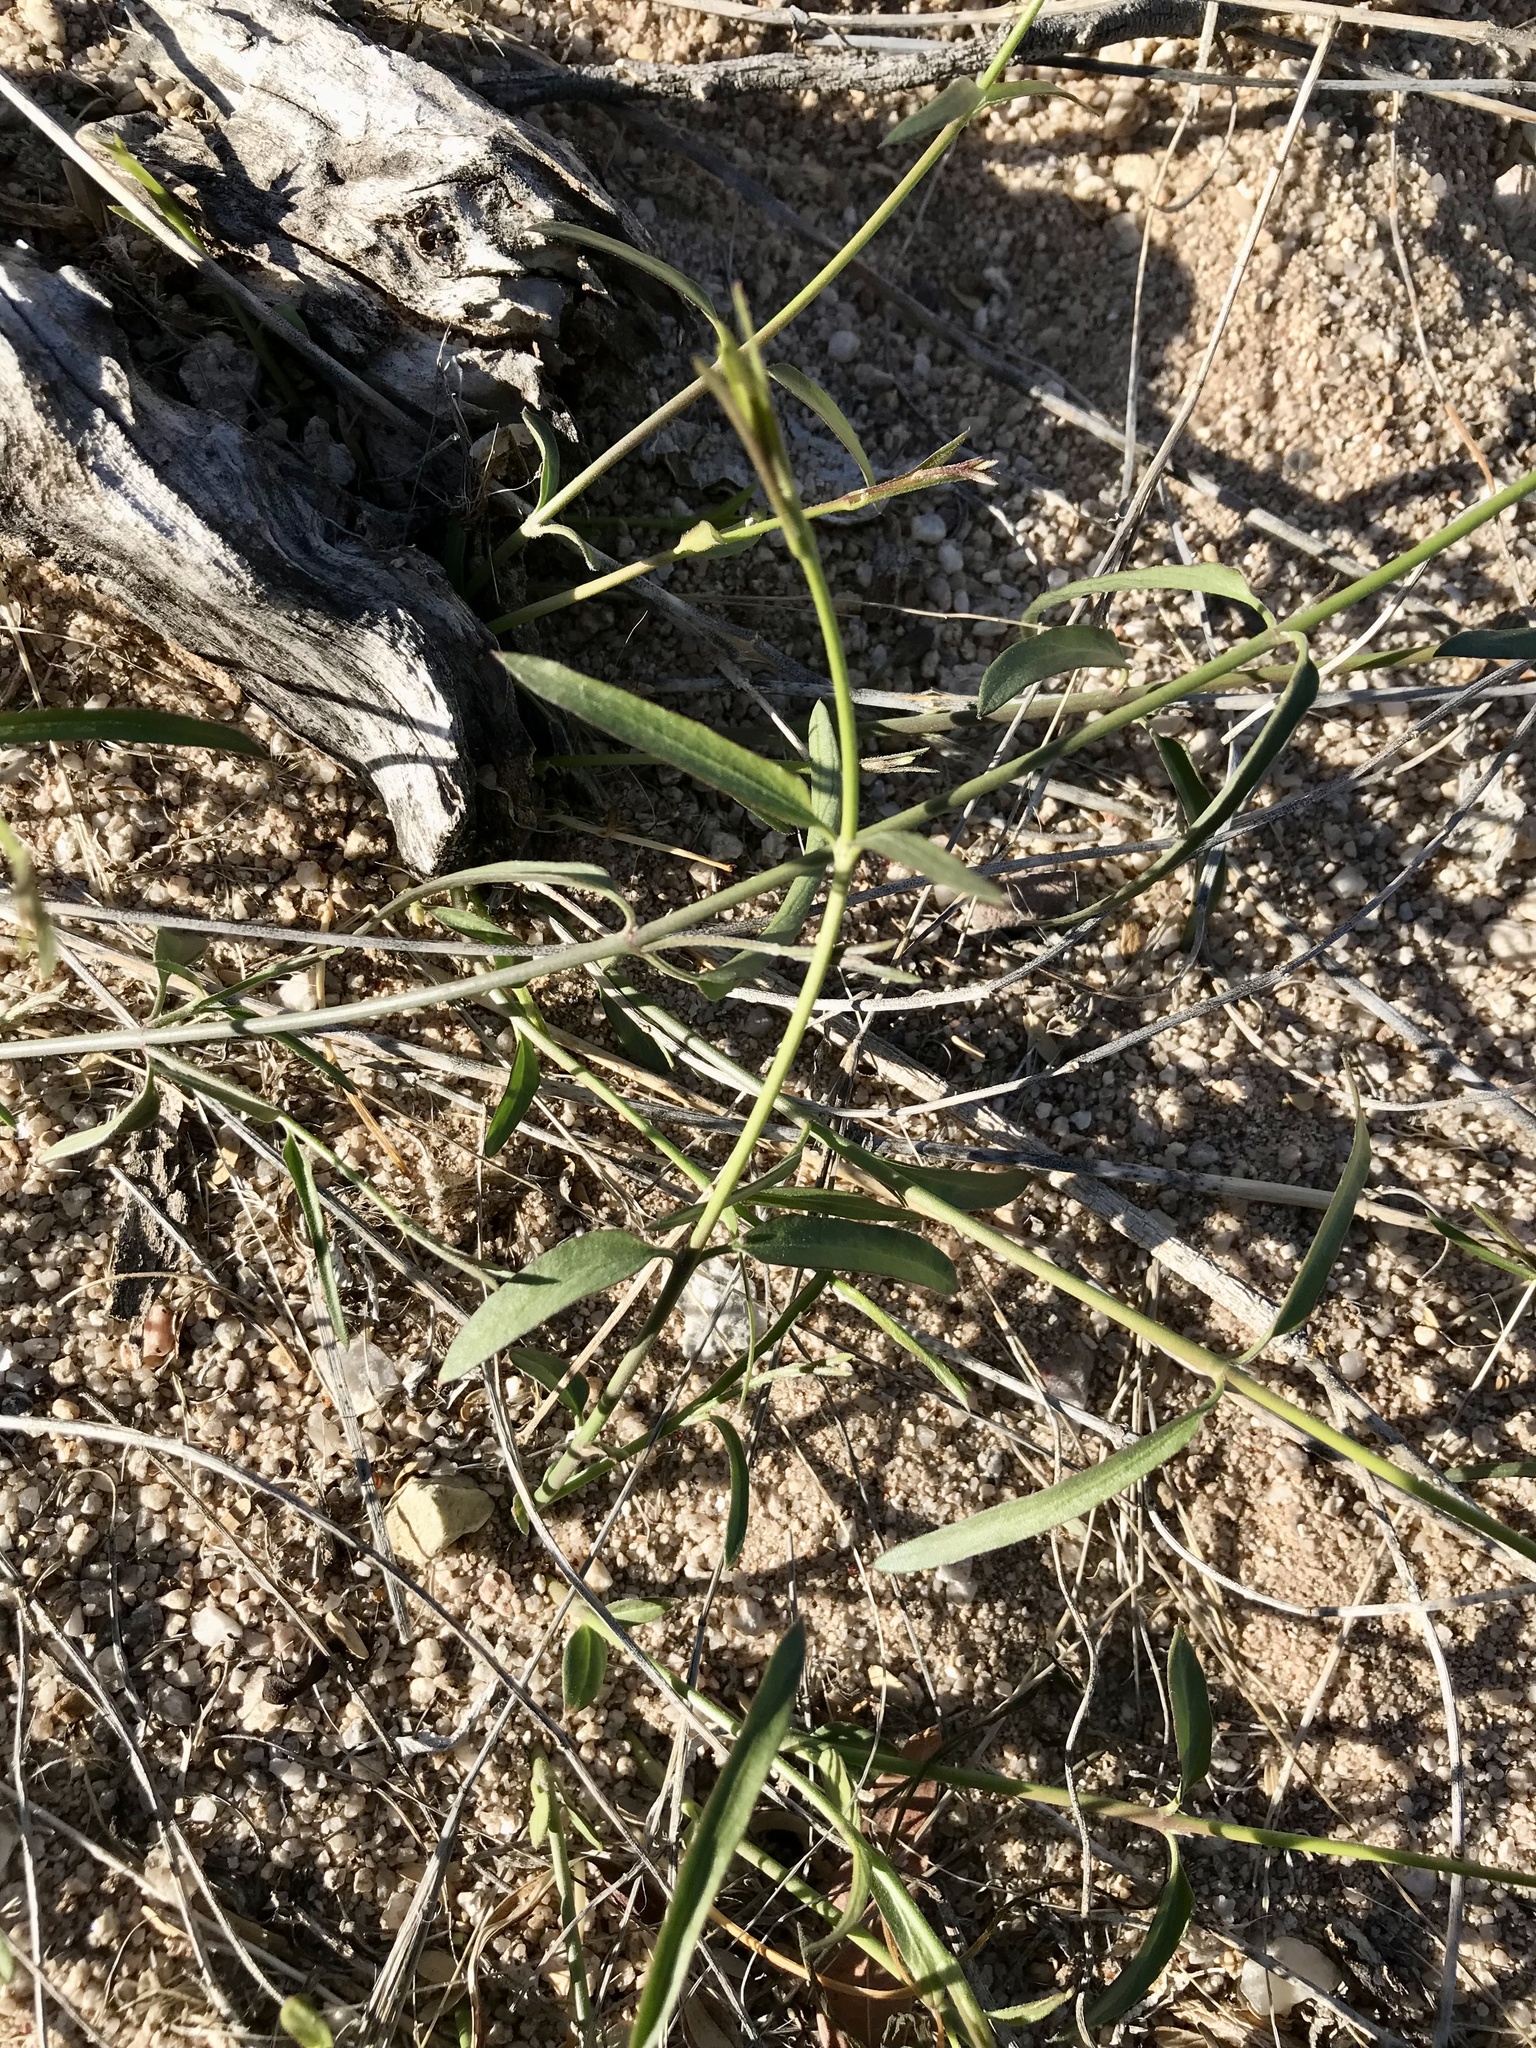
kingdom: Plantae
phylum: Tracheophyta
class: Magnoliopsida
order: Gentianales
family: Apocynaceae
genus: Funastrum
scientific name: Funastrum heterophyllum
